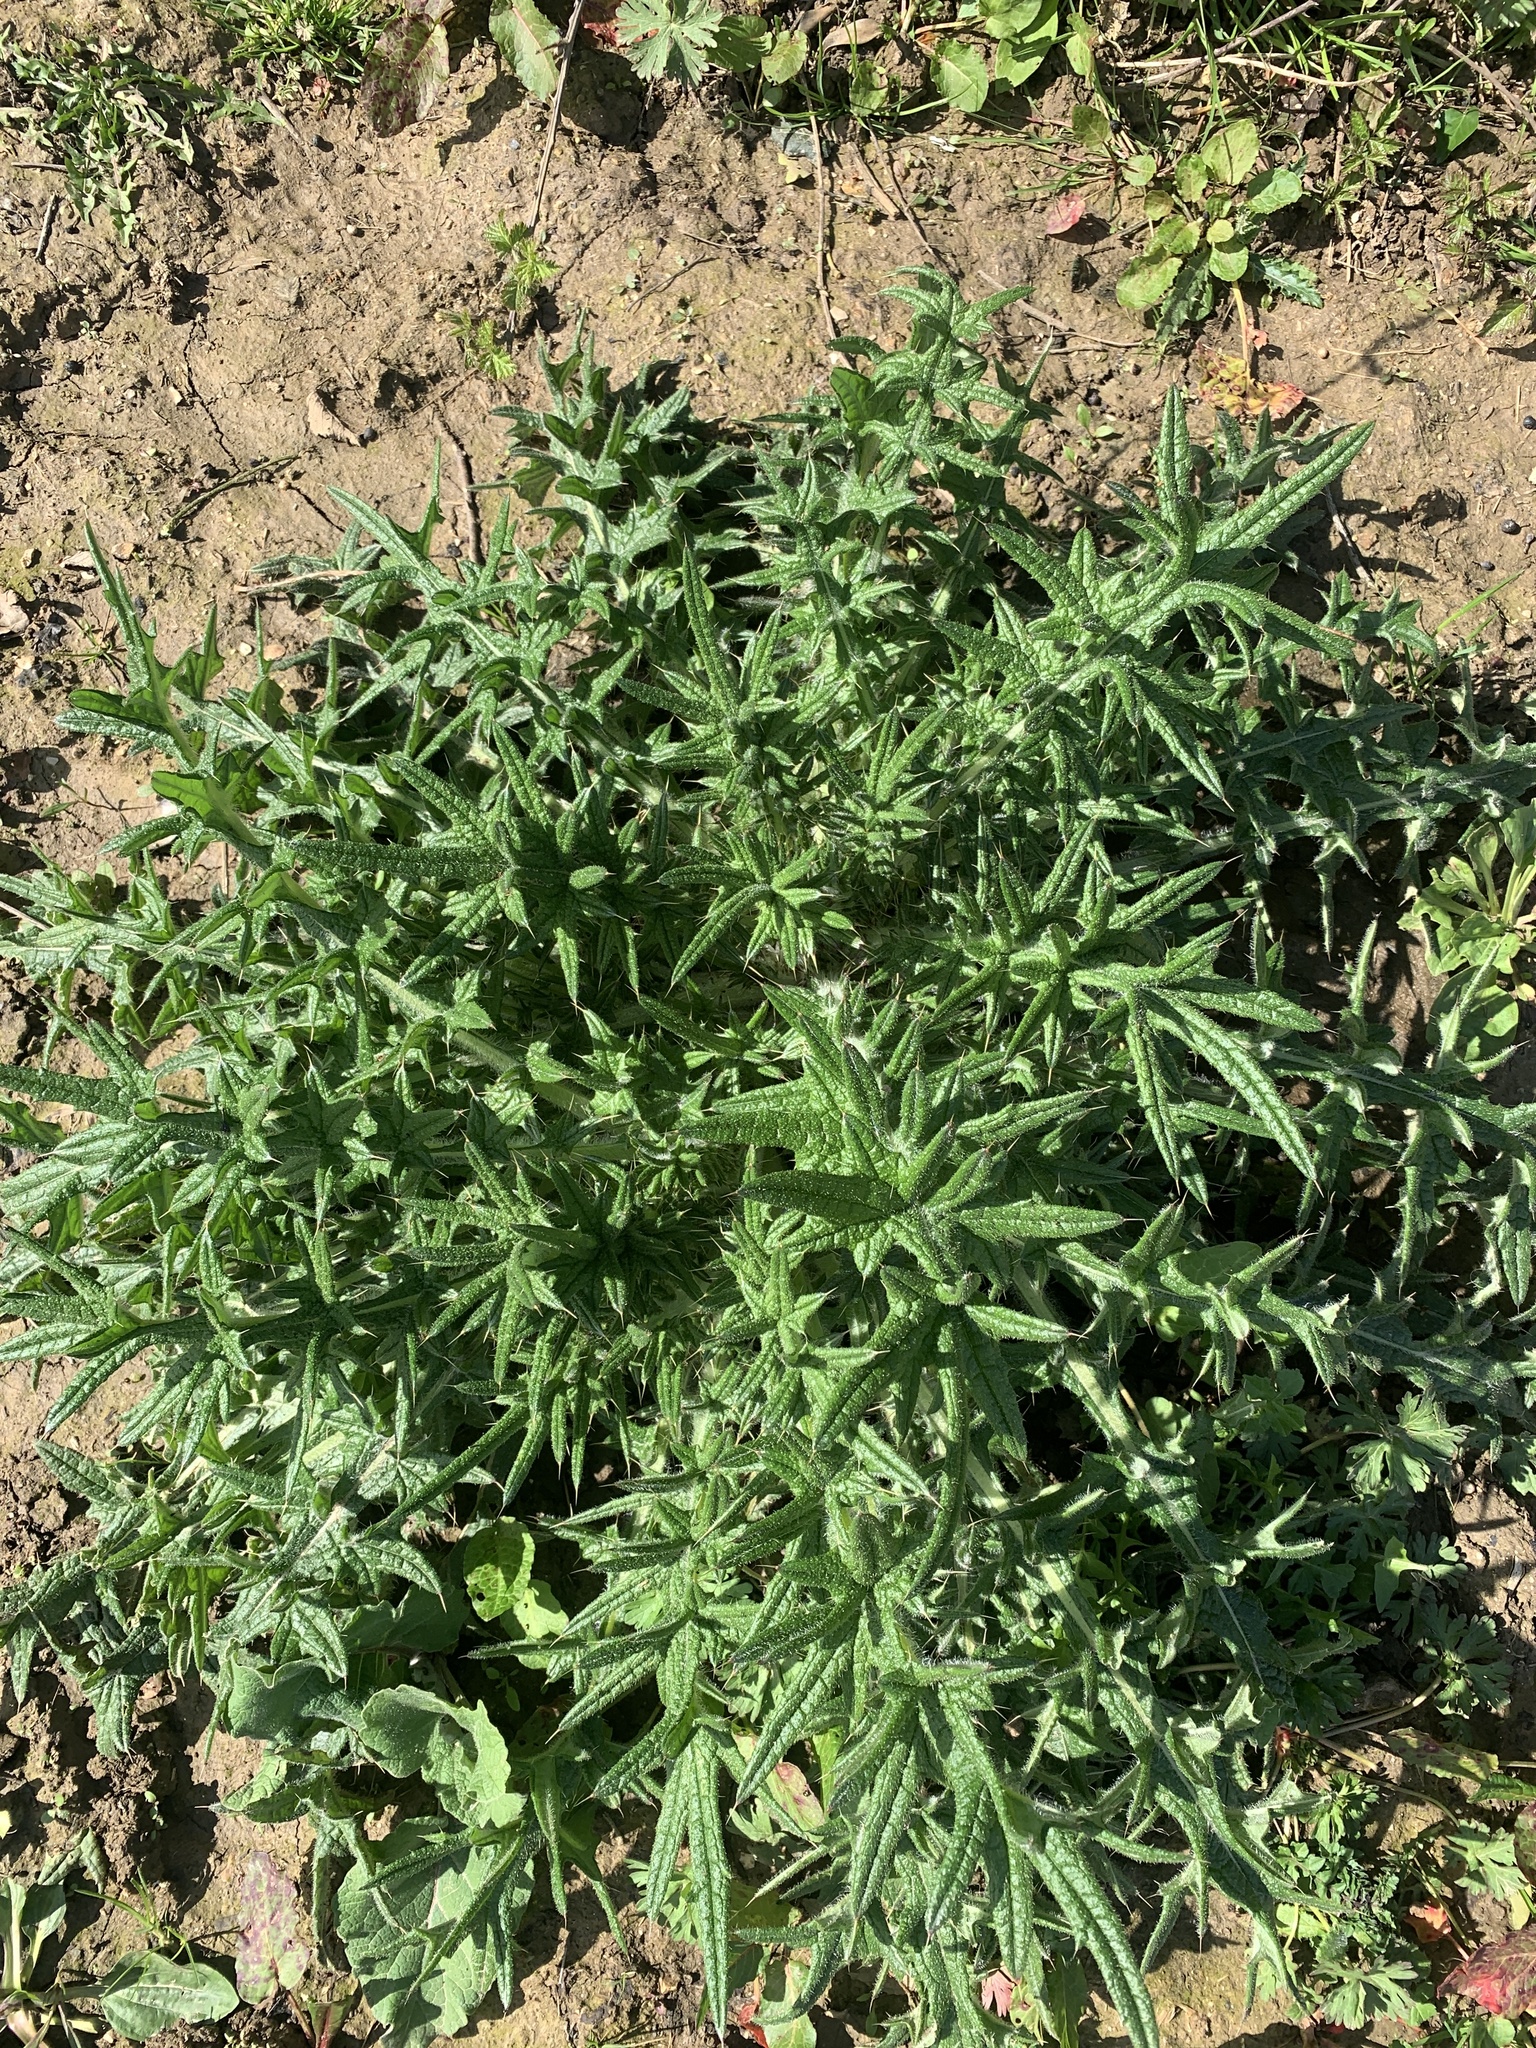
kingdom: Plantae
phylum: Tracheophyta
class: Magnoliopsida
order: Asterales
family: Asteraceae
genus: Cirsium
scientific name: Cirsium vulgare
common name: Bull thistle
